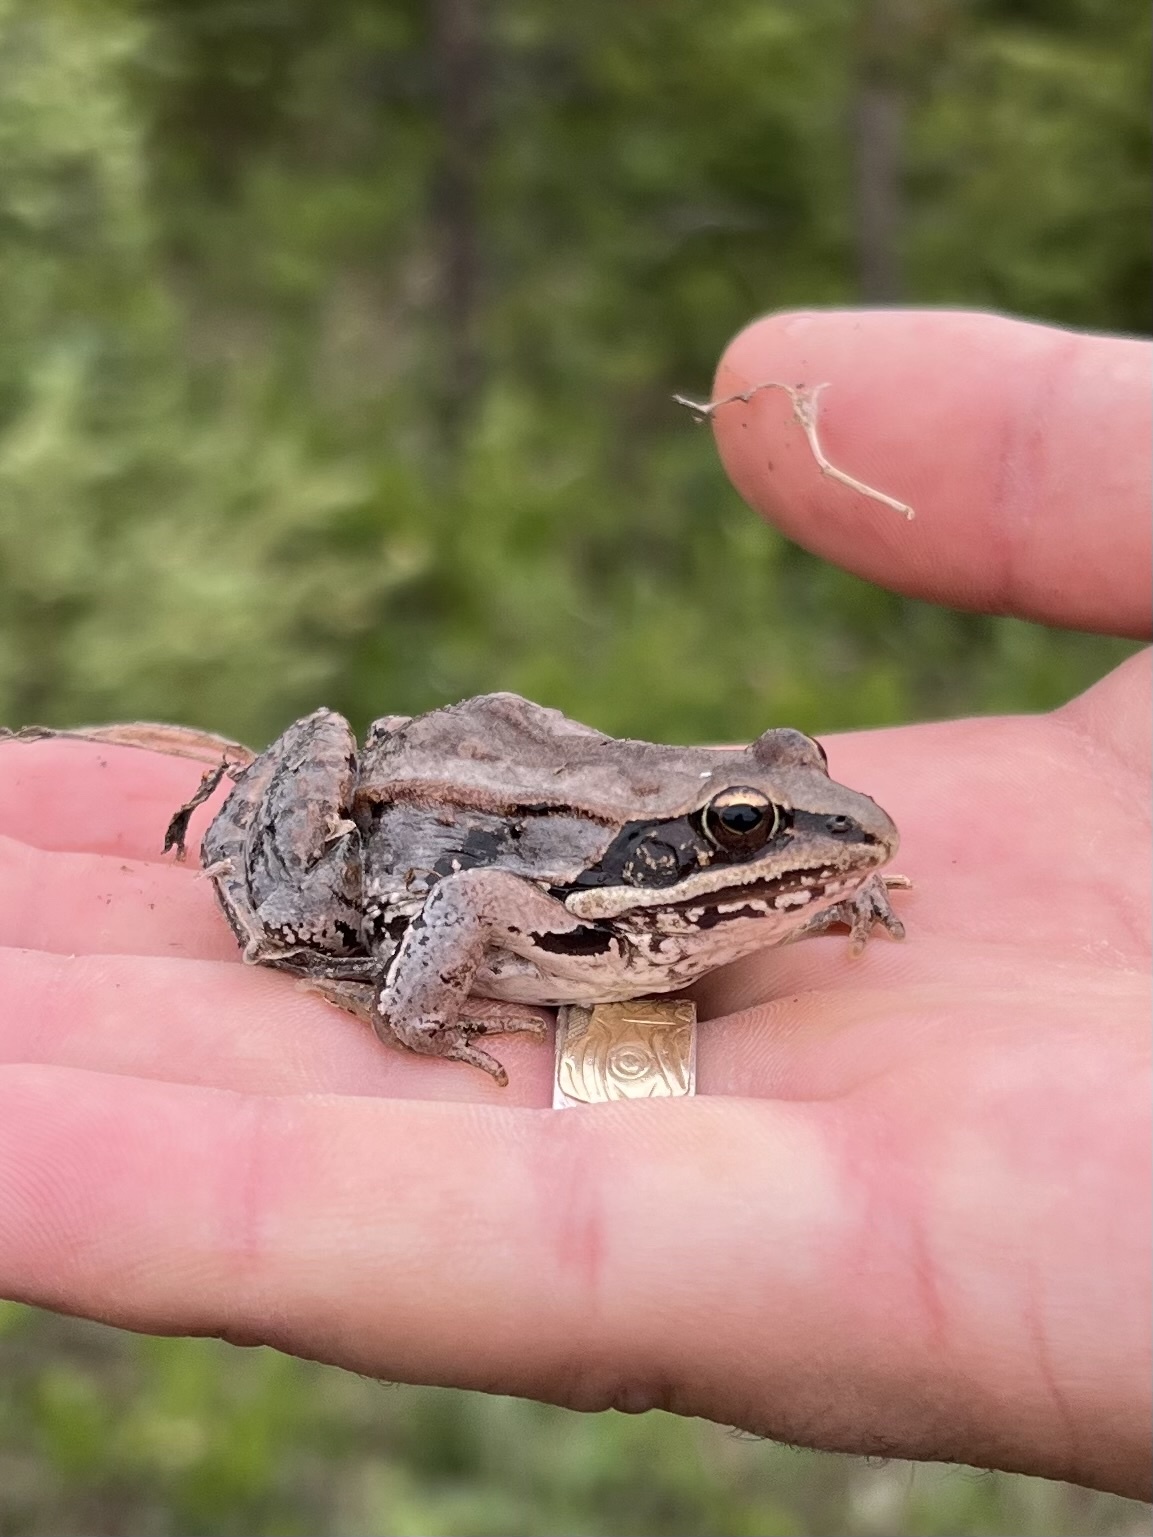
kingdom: Animalia
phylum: Chordata
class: Amphibia
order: Anura
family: Ranidae
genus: Lithobates
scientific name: Lithobates sylvaticus
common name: Wood frog
